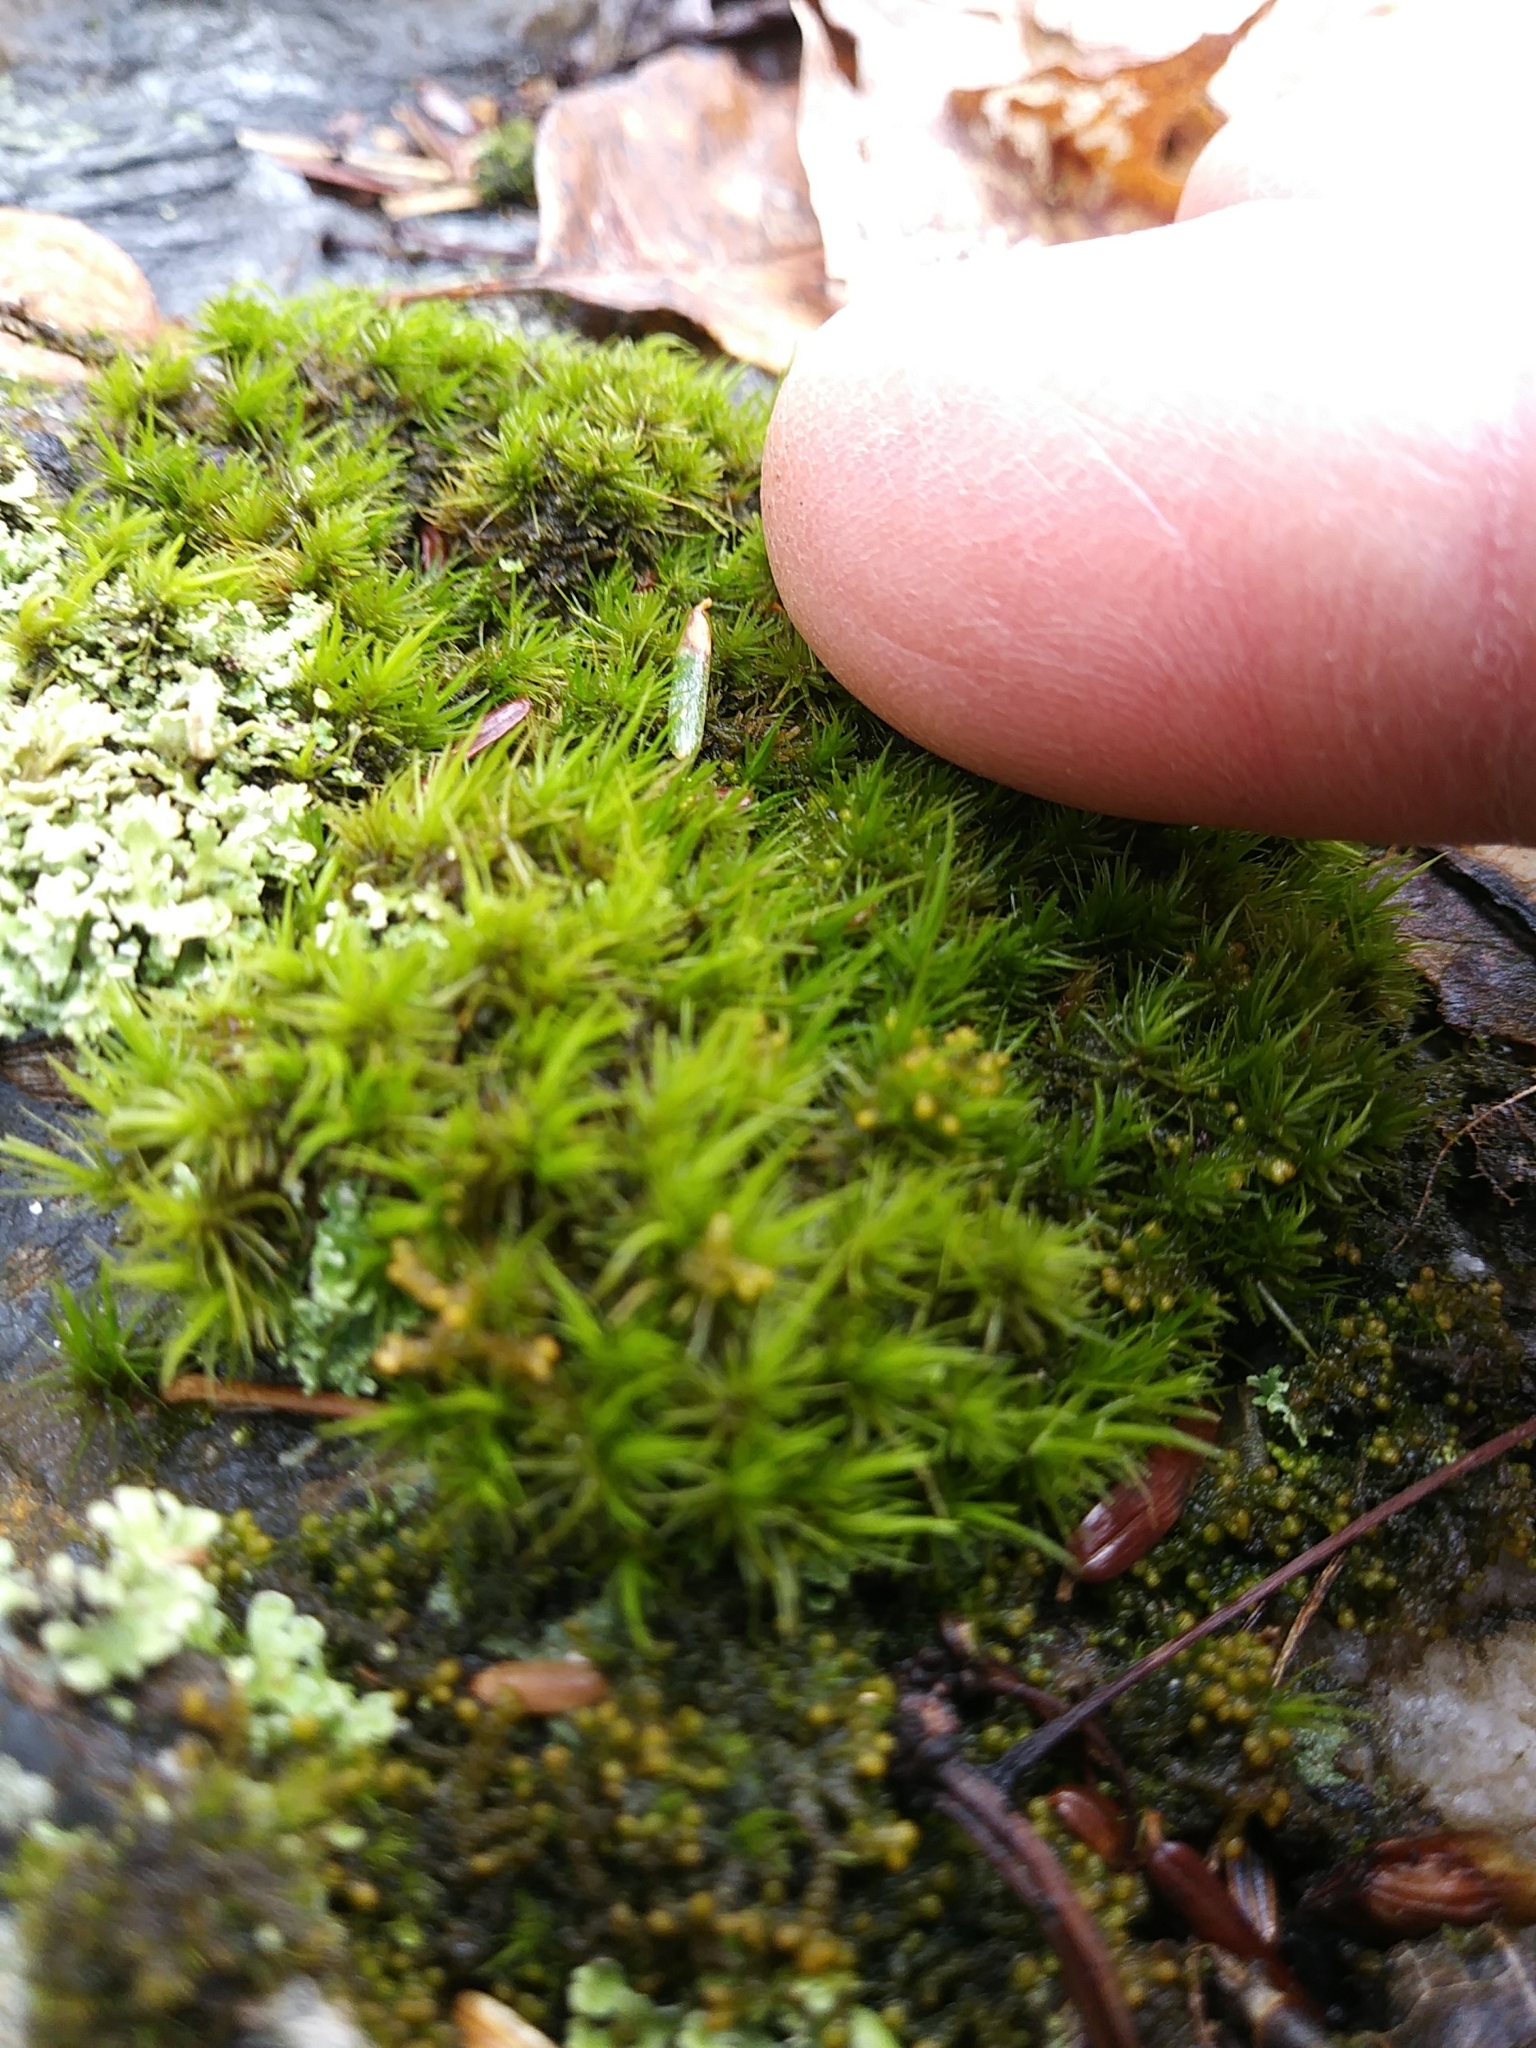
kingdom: Plantae
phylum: Bryophyta
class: Bryopsida
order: Dicranales
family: Dicranaceae
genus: Dicranum
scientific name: Dicranum viride
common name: Green broom moss
